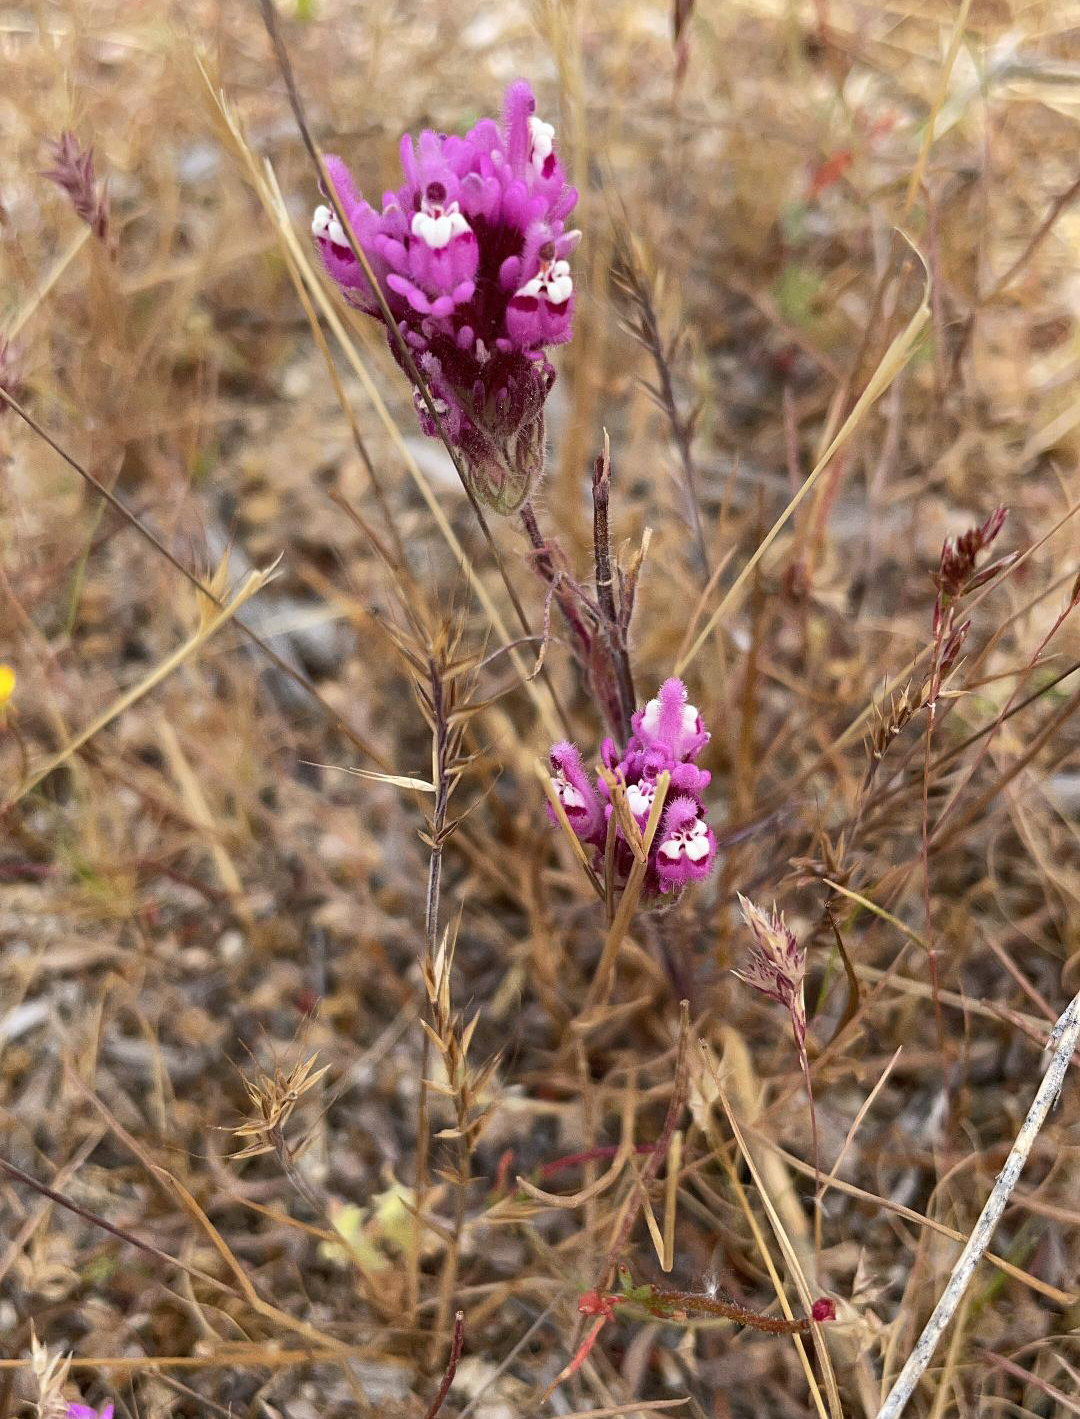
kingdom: Plantae
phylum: Tracheophyta
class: Magnoliopsida
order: Lamiales
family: Orobanchaceae
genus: Castilleja
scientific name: Castilleja exserta
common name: Purple owl-clover
